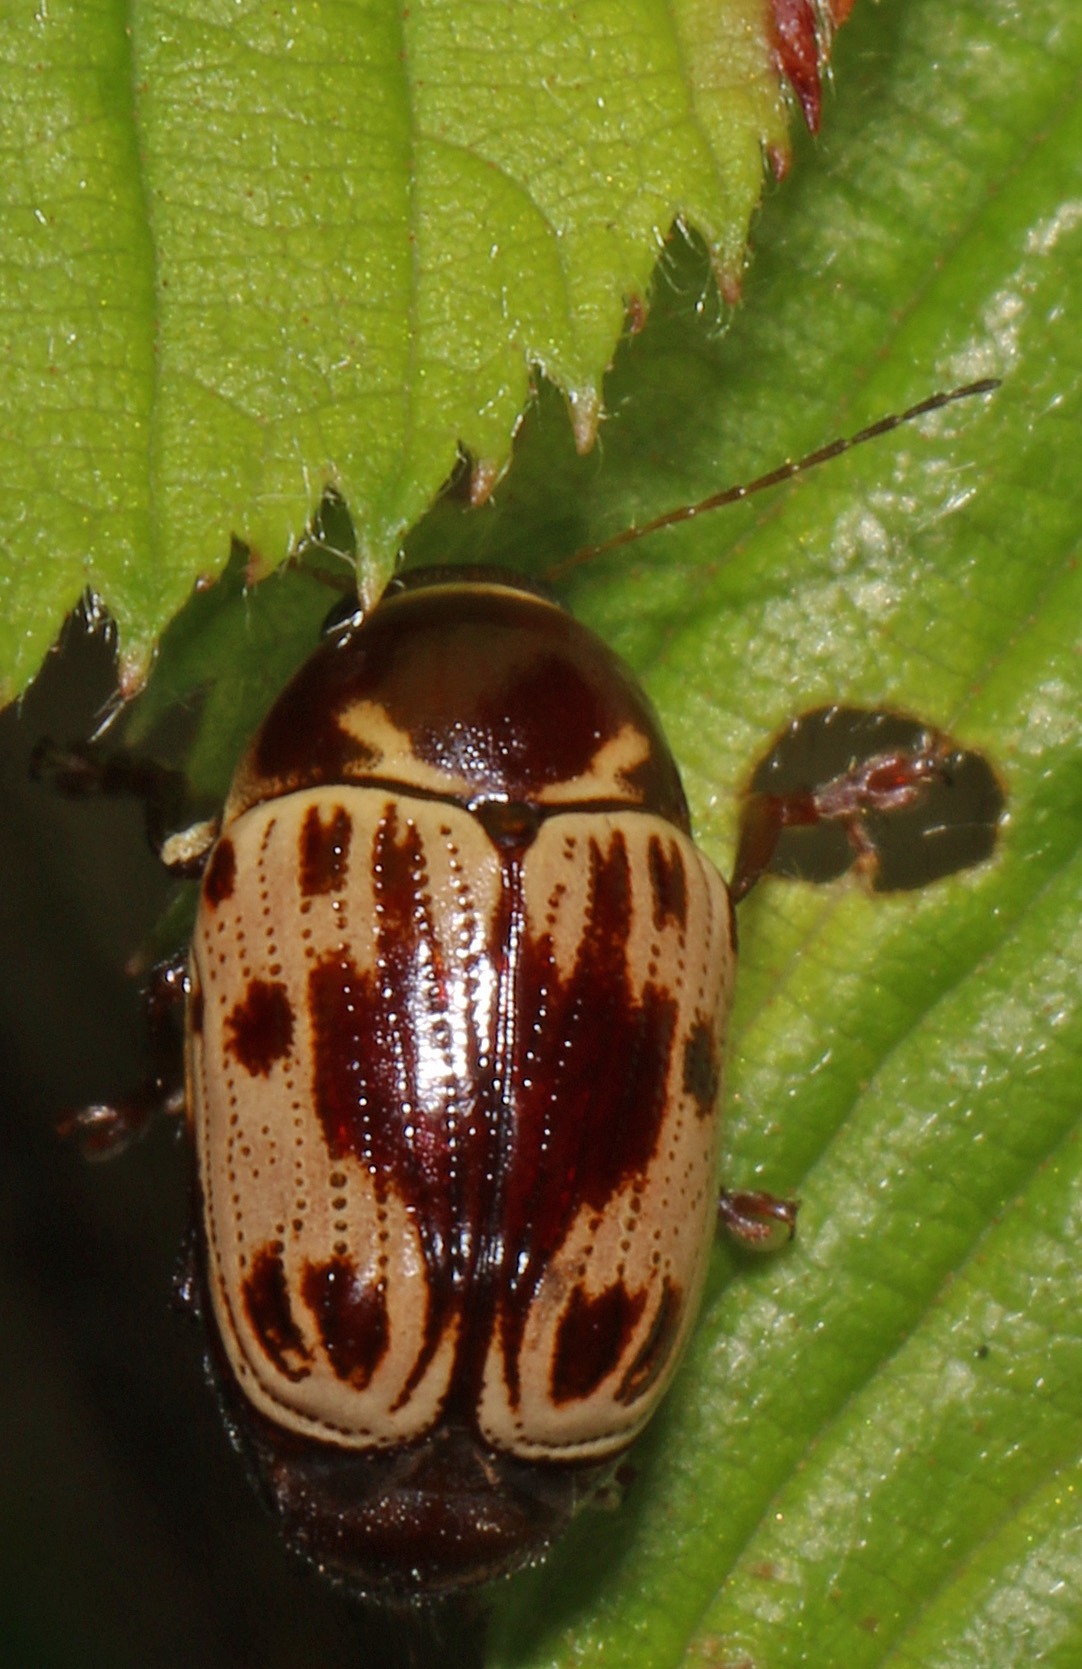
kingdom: Animalia
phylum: Arthropoda
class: Insecta
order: Coleoptera
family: Chrysomelidae
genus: Cryptocephalus
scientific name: Cryptocephalus mutabilis
